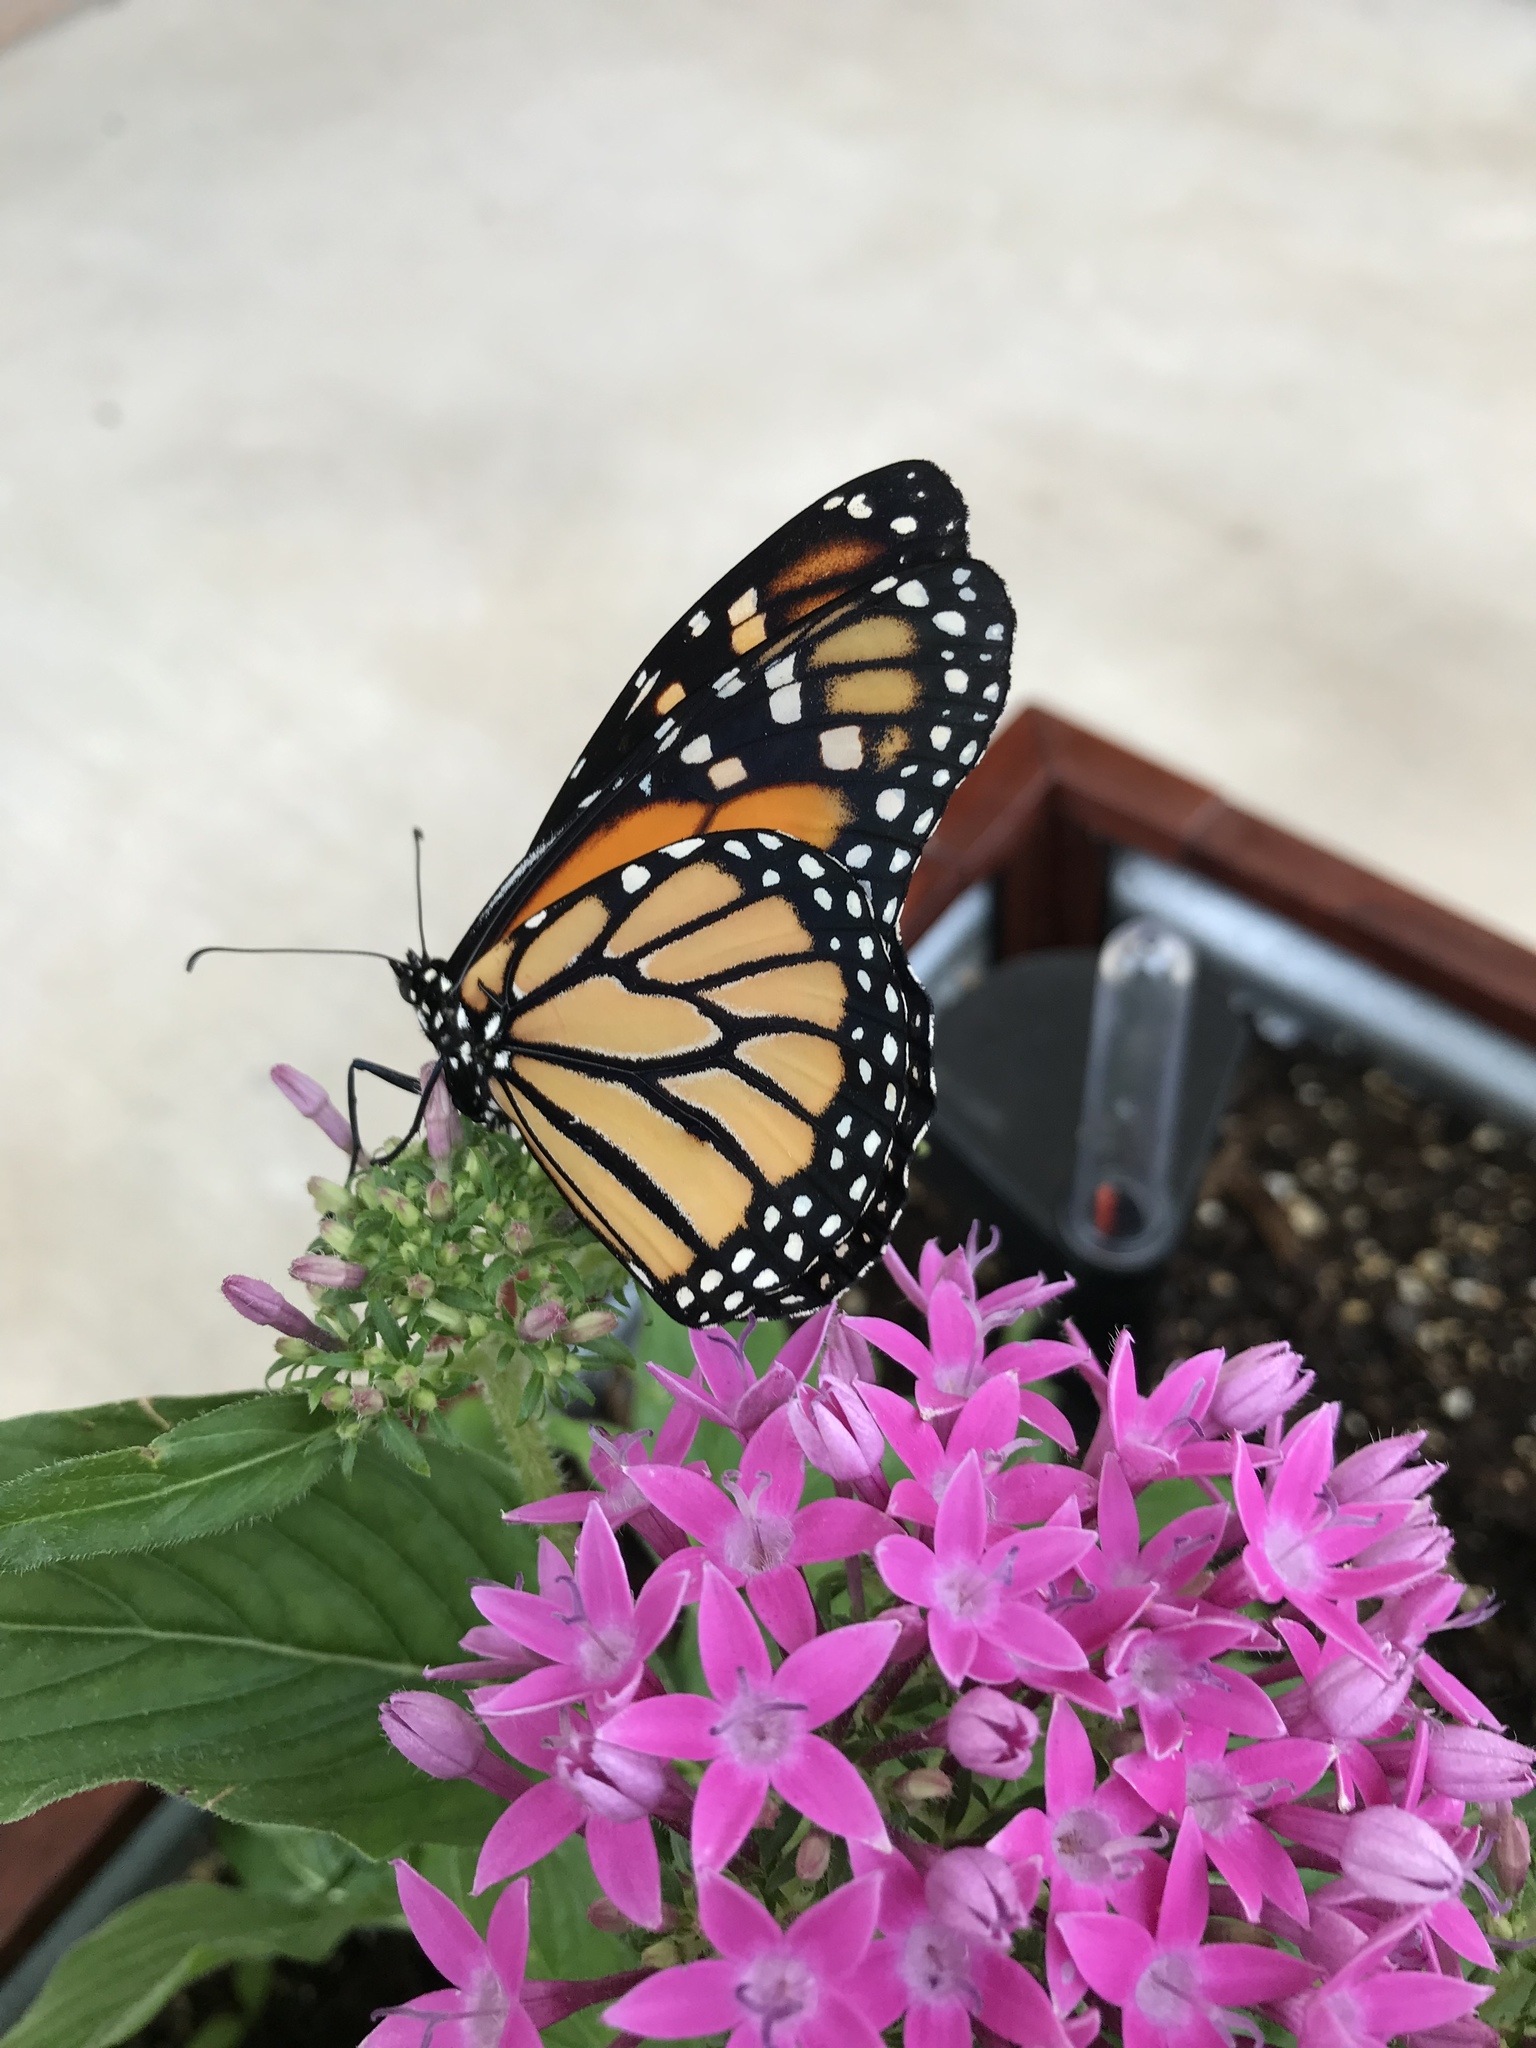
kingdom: Animalia
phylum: Arthropoda
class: Insecta
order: Lepidoptera
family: Nymphalidae
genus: Danaus
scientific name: Danaus plexippus
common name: Monarch
